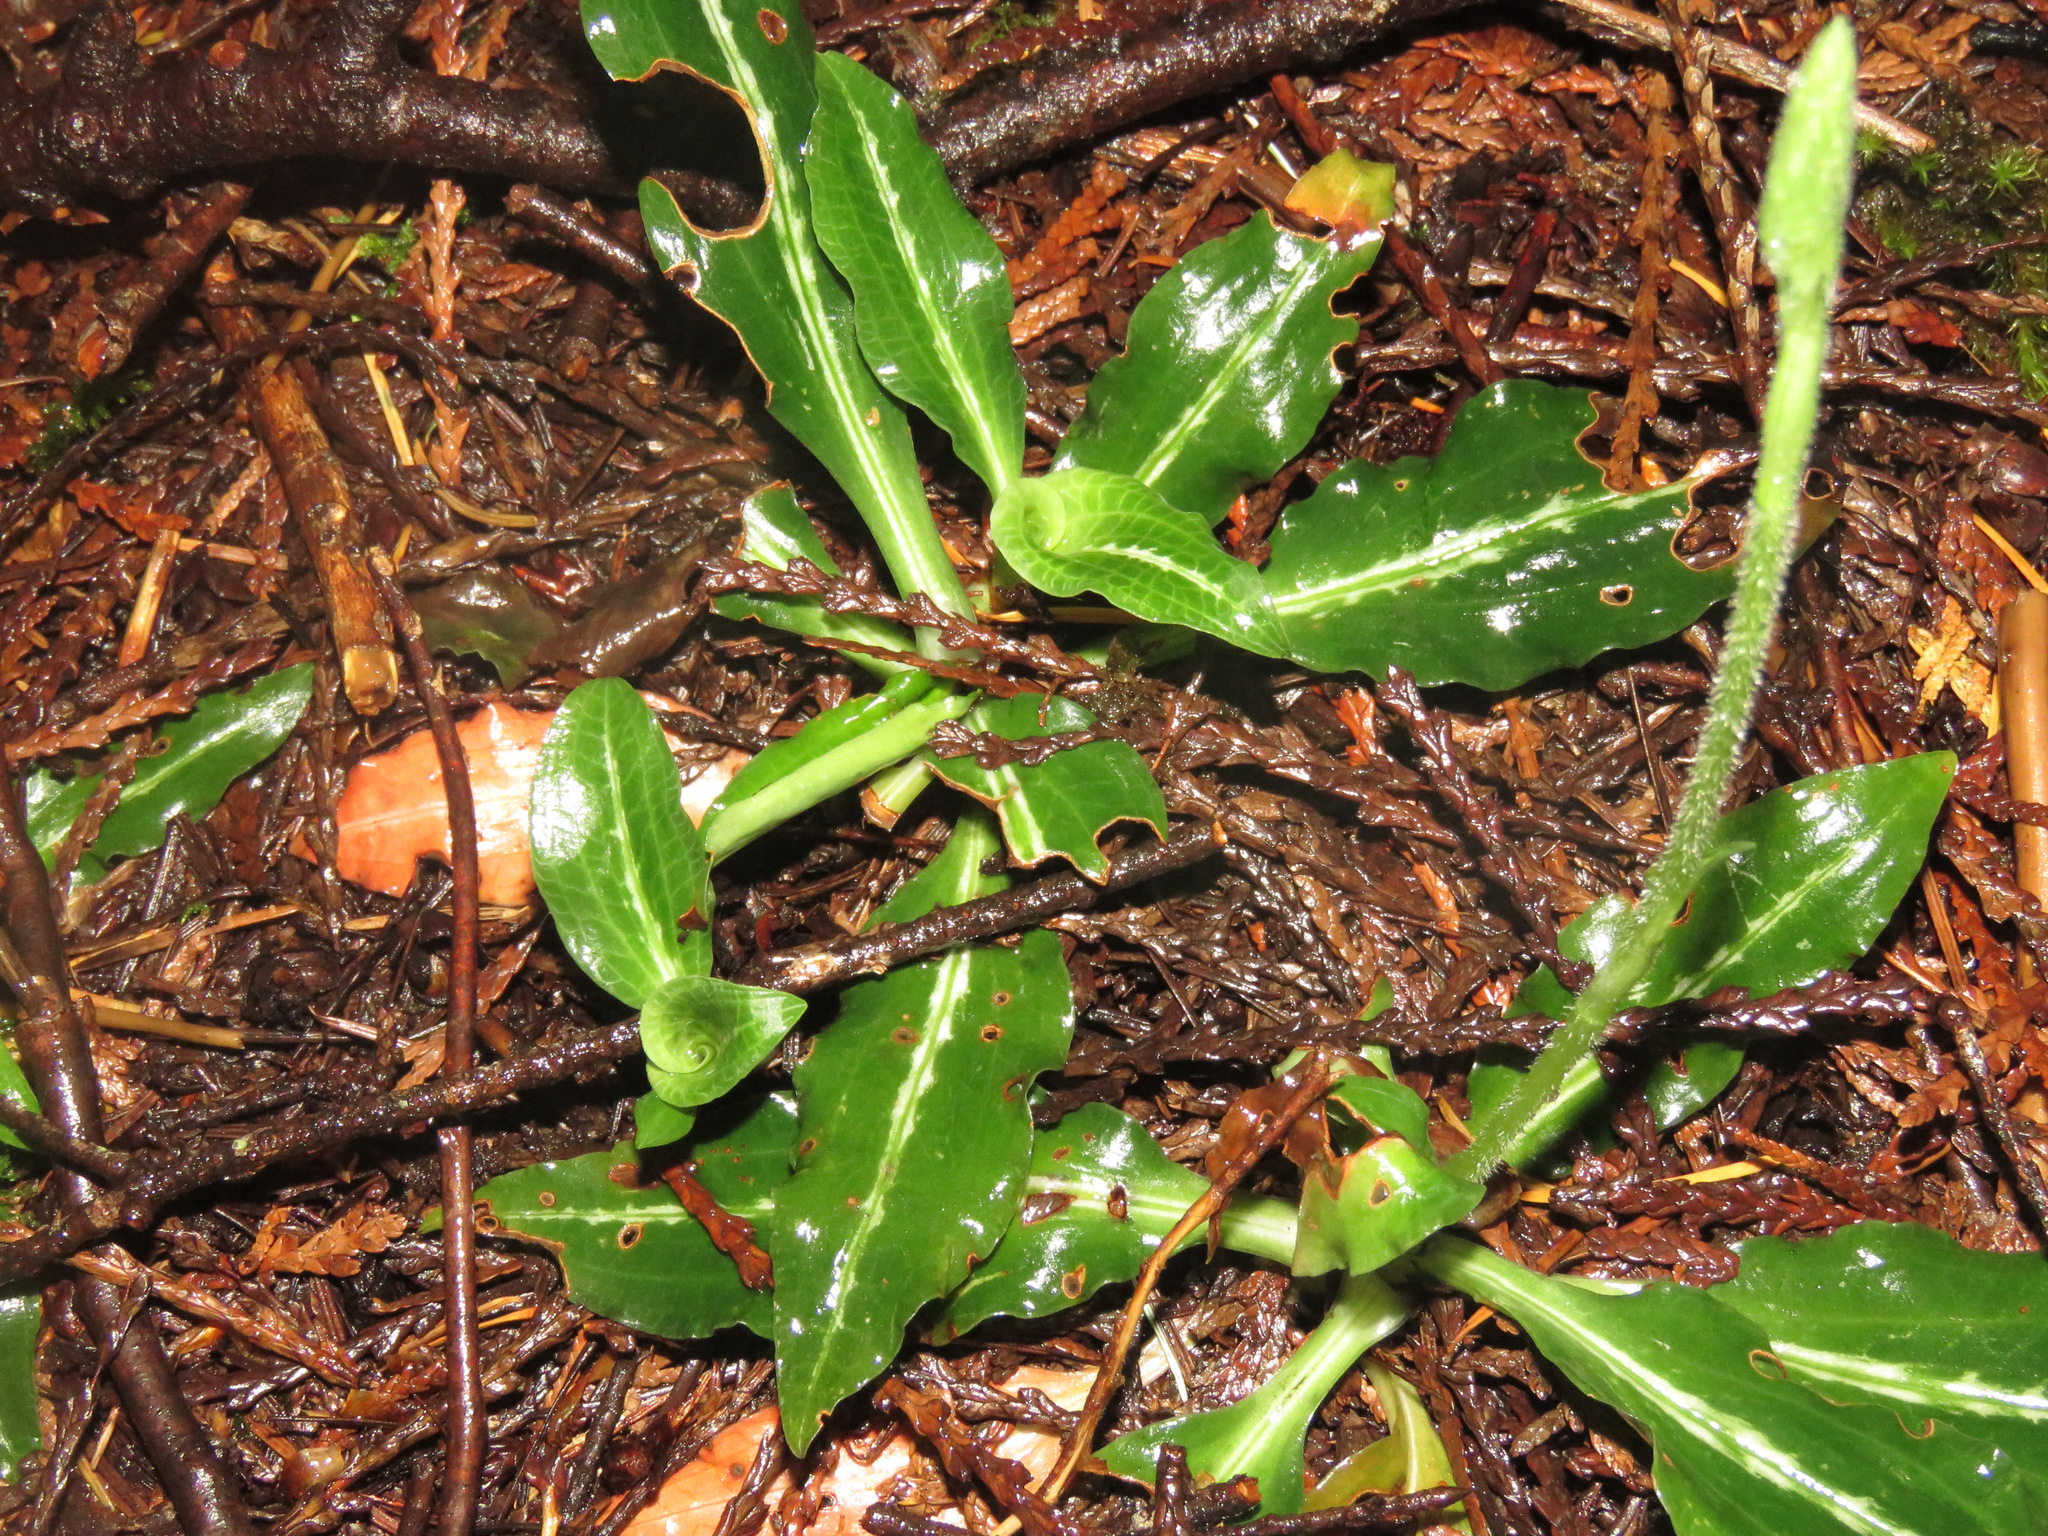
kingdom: Plantae
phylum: Tracheophyta
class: Liliopsida
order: Asparagales
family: Orchidaceae
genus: Goodyera
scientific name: Goodyera oblongifolia
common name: Giant rattlesnake-plantain
